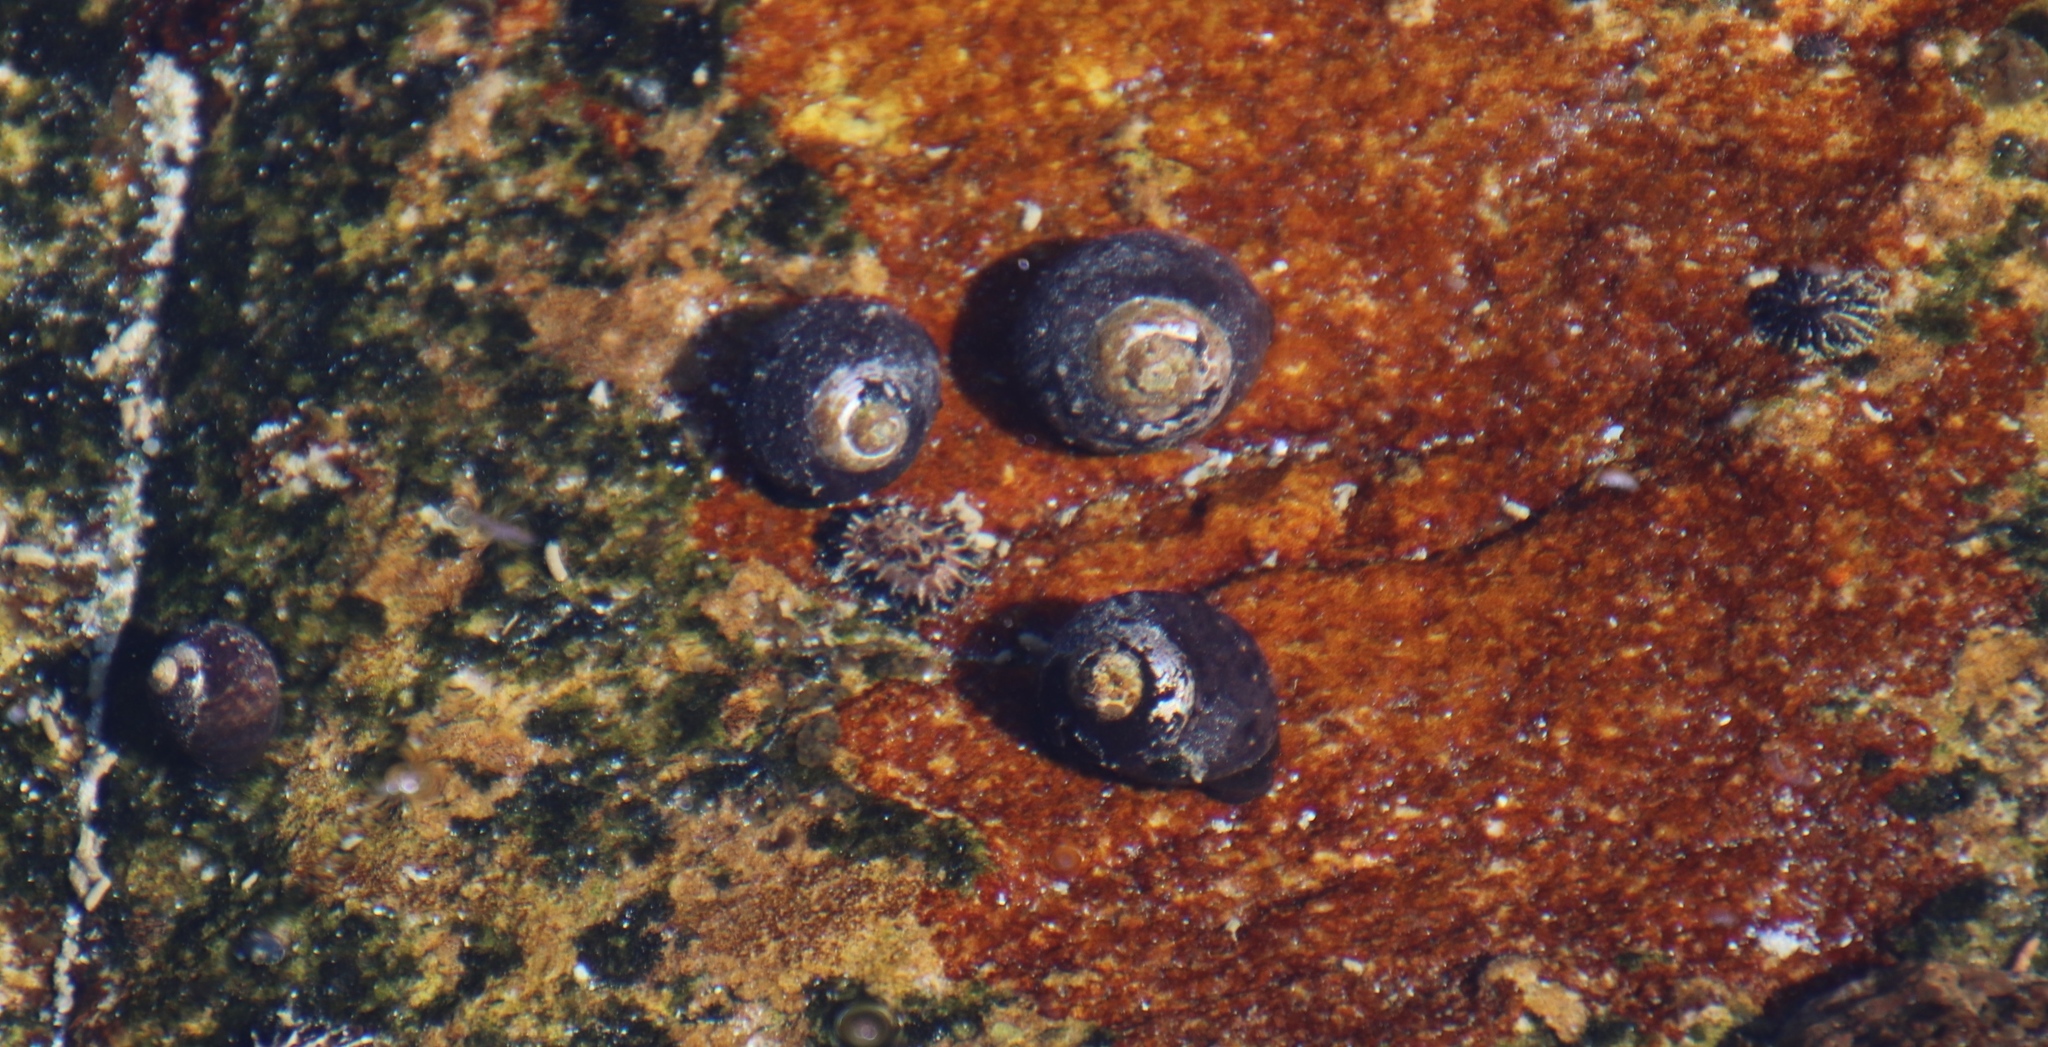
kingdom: Animalia
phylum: Mollusca
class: Gastropoda
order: Trochida
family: Trochidae
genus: Oxystele
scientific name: Oxystele sinensis
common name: Pink-lipped topshell
